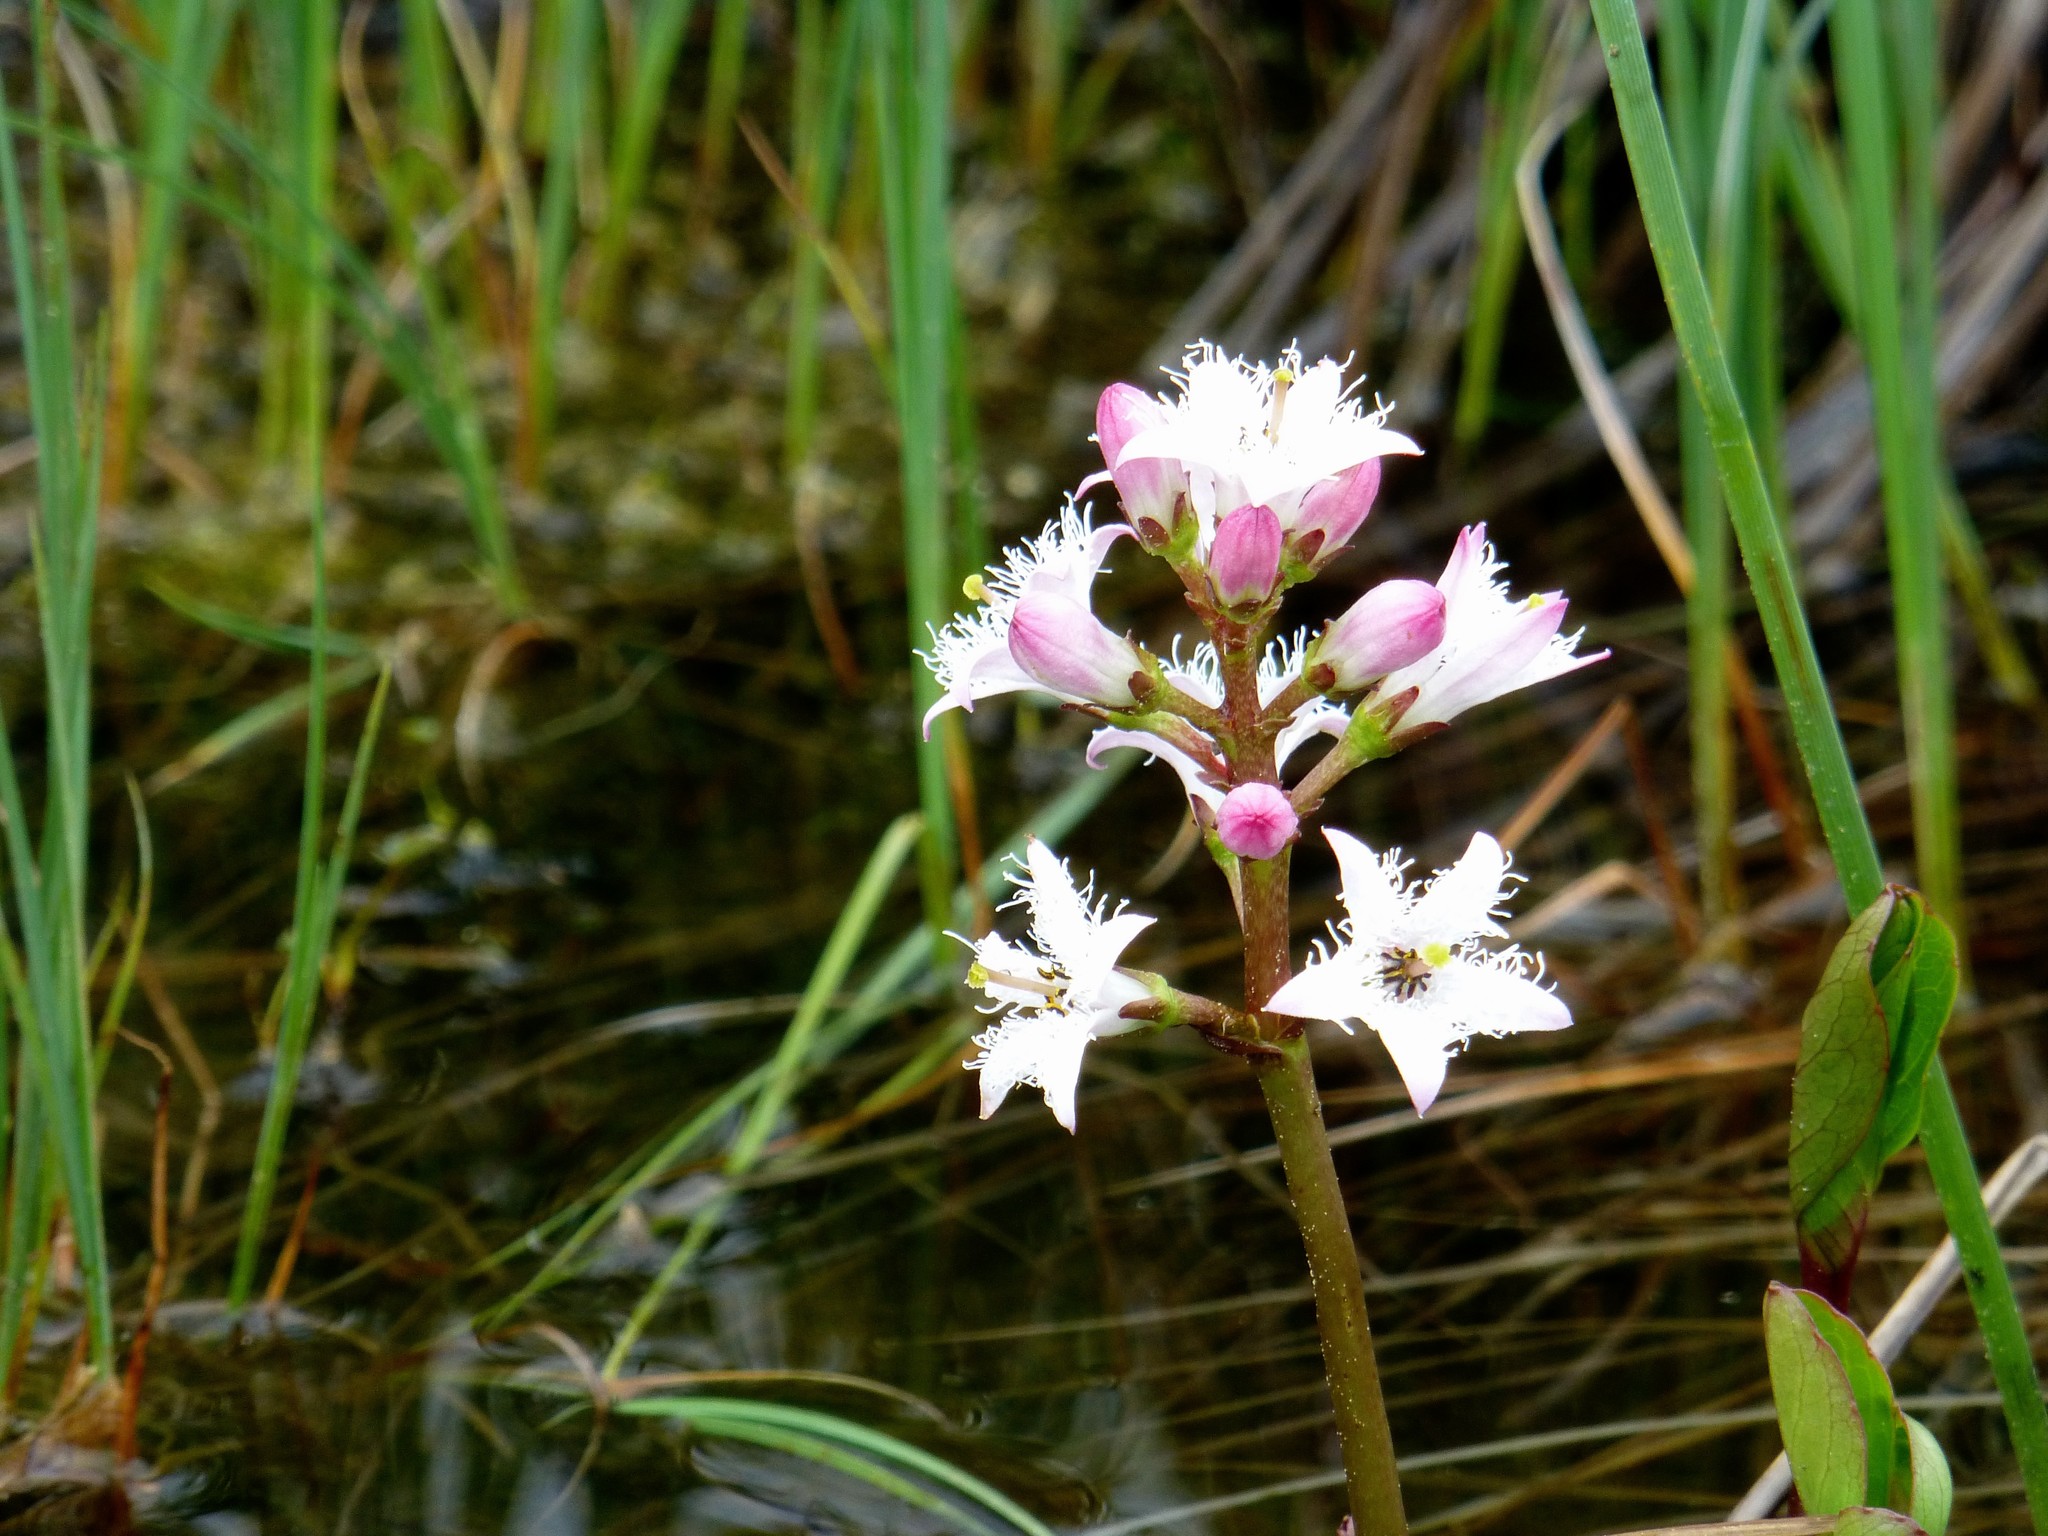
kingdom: Plantae
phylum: Tracheophyta
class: Magnoliopsida
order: Asterales
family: Menyanthaceae
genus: Menyanthes
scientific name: Menyanthes trifoliata
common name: Bogbean
